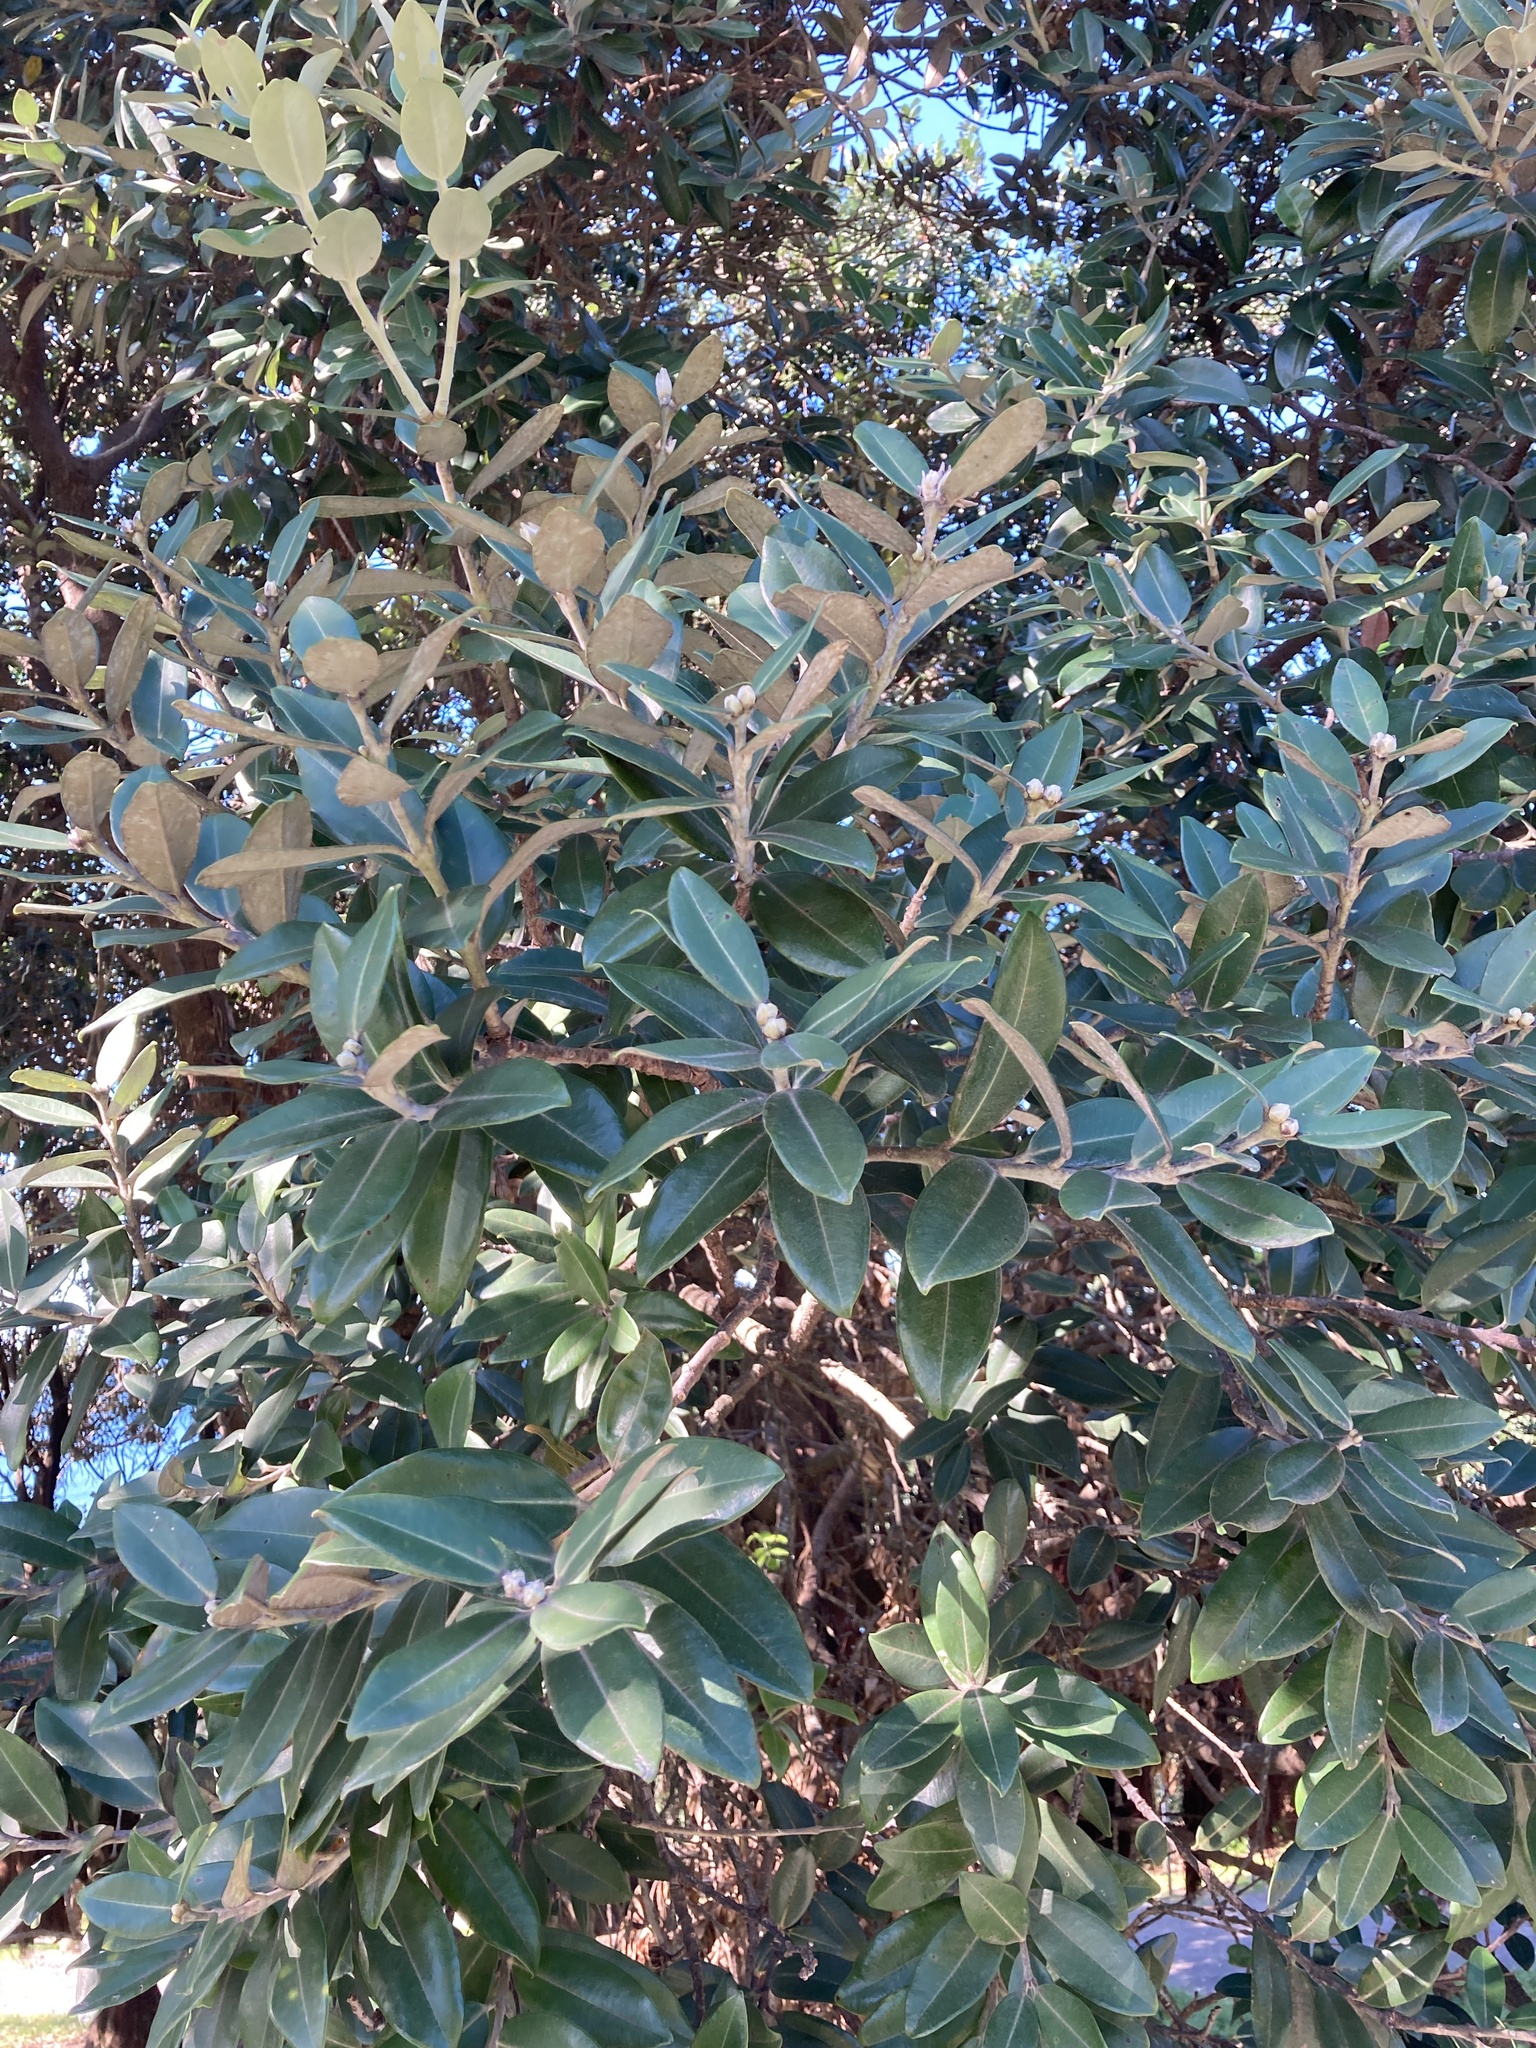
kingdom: Plantae
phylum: Tracheophyta
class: Magnoliopsida
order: Myrtales
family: Myrtaceae
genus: Metrosideros
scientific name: Metrosideros excelsa
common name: New zealand christmastree
